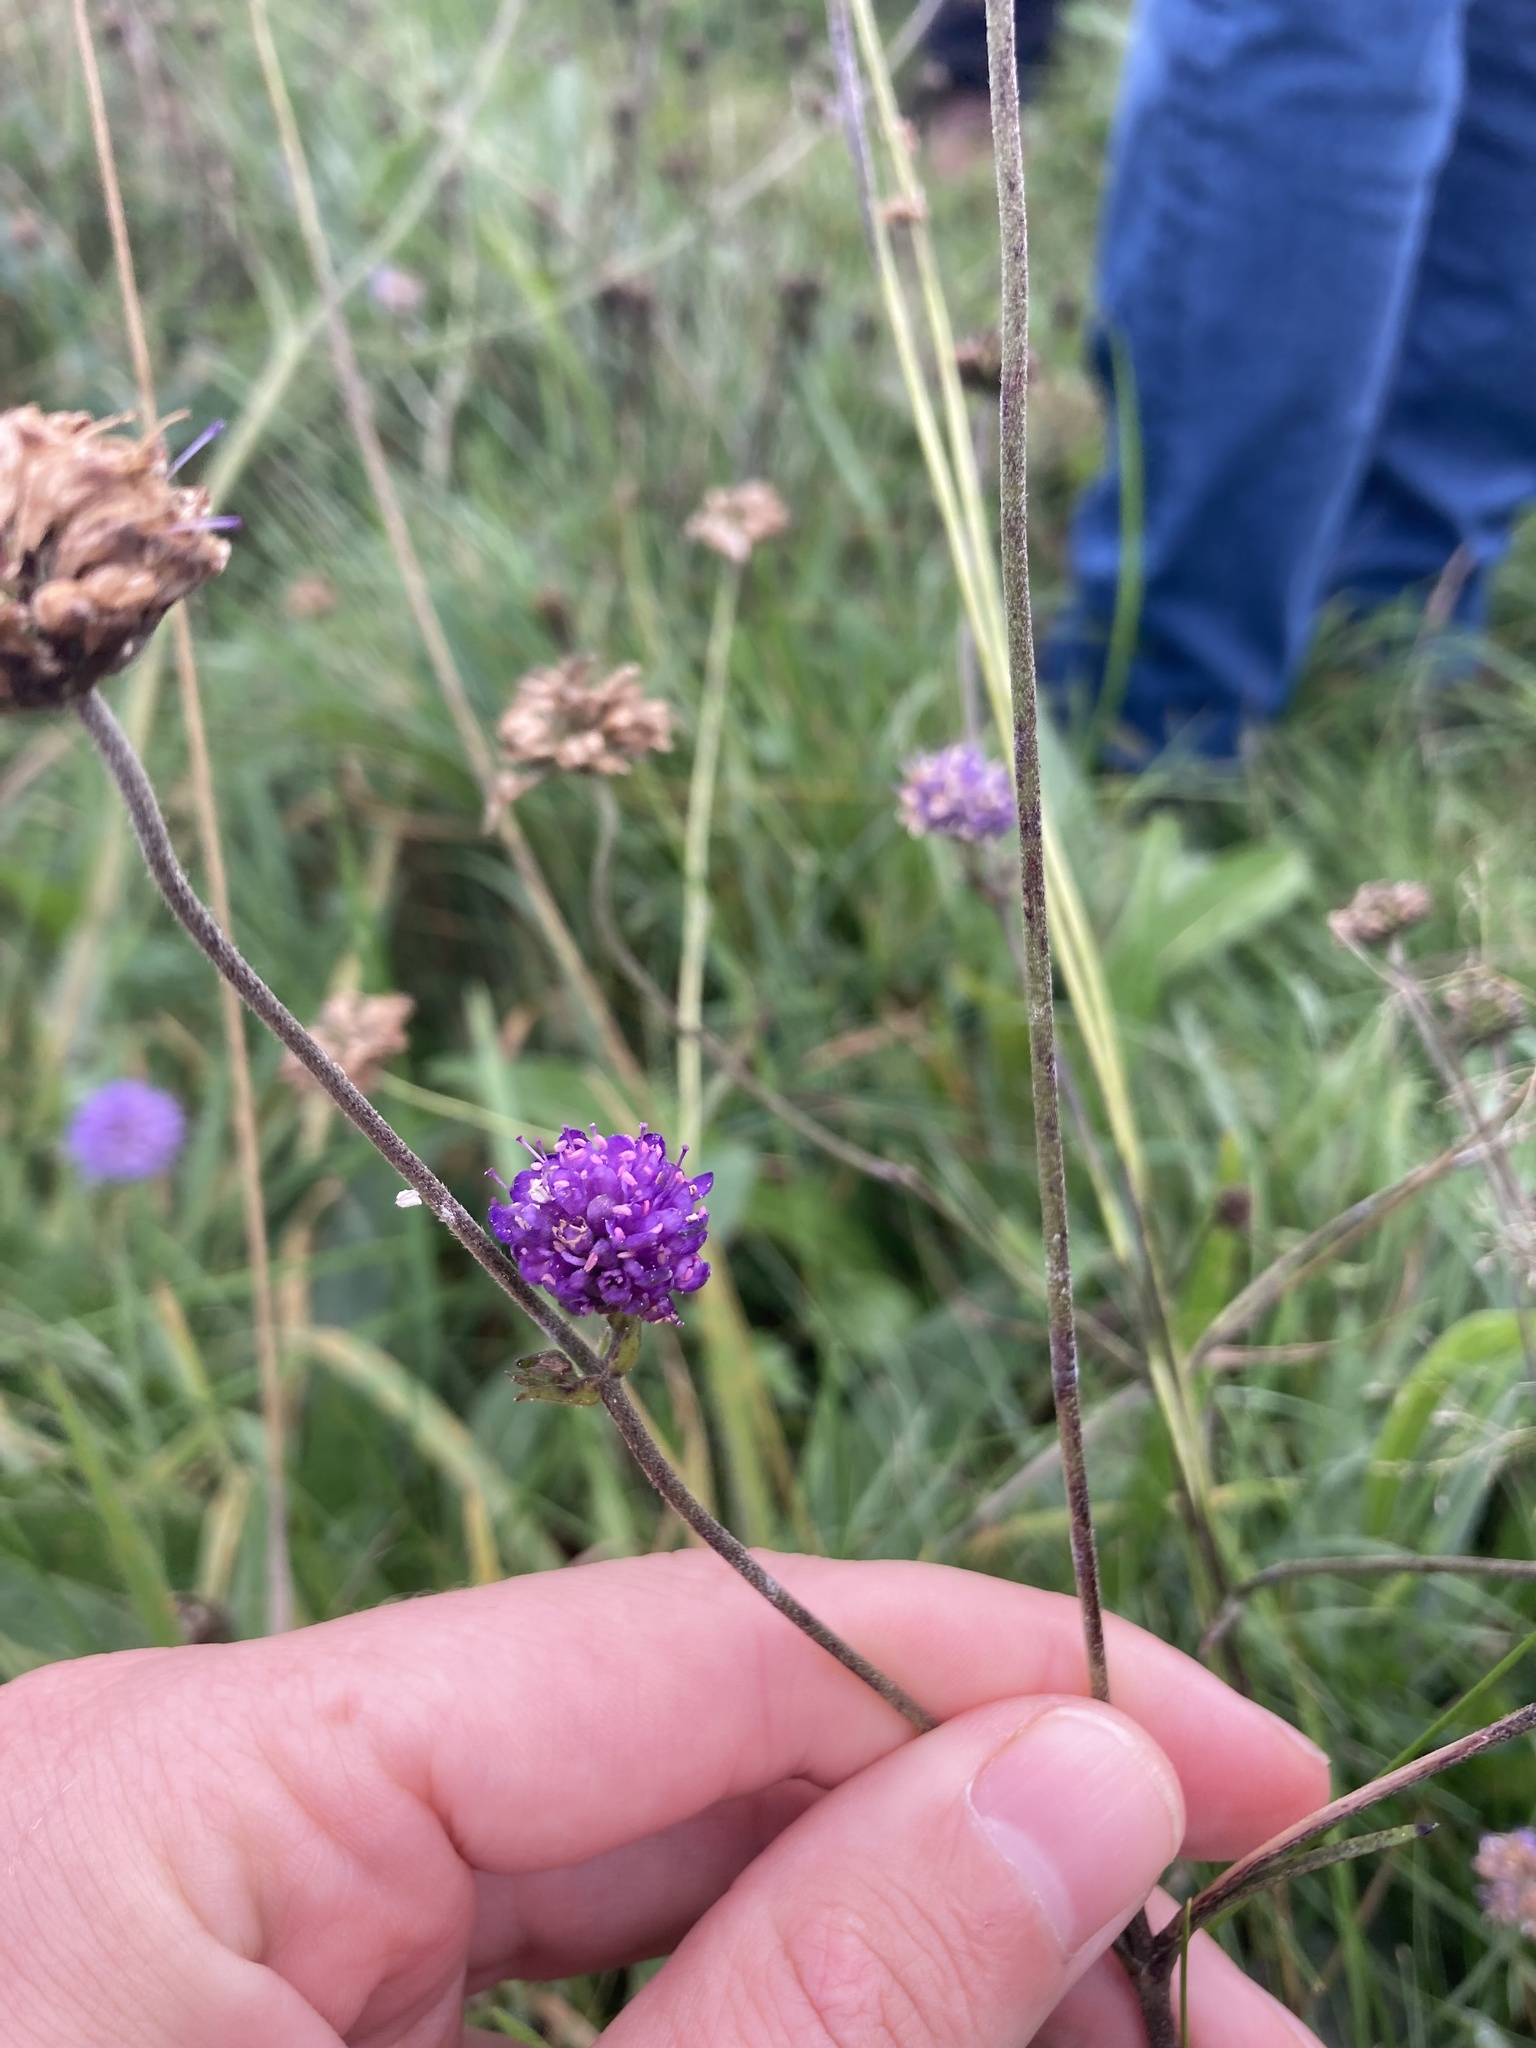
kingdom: Plantae
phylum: Tracheophyta
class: Magnoliopsida
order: Dipsacales
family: Caprifoliaceae
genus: Succisa
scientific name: Succisa pratensis
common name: Devil's-bit
